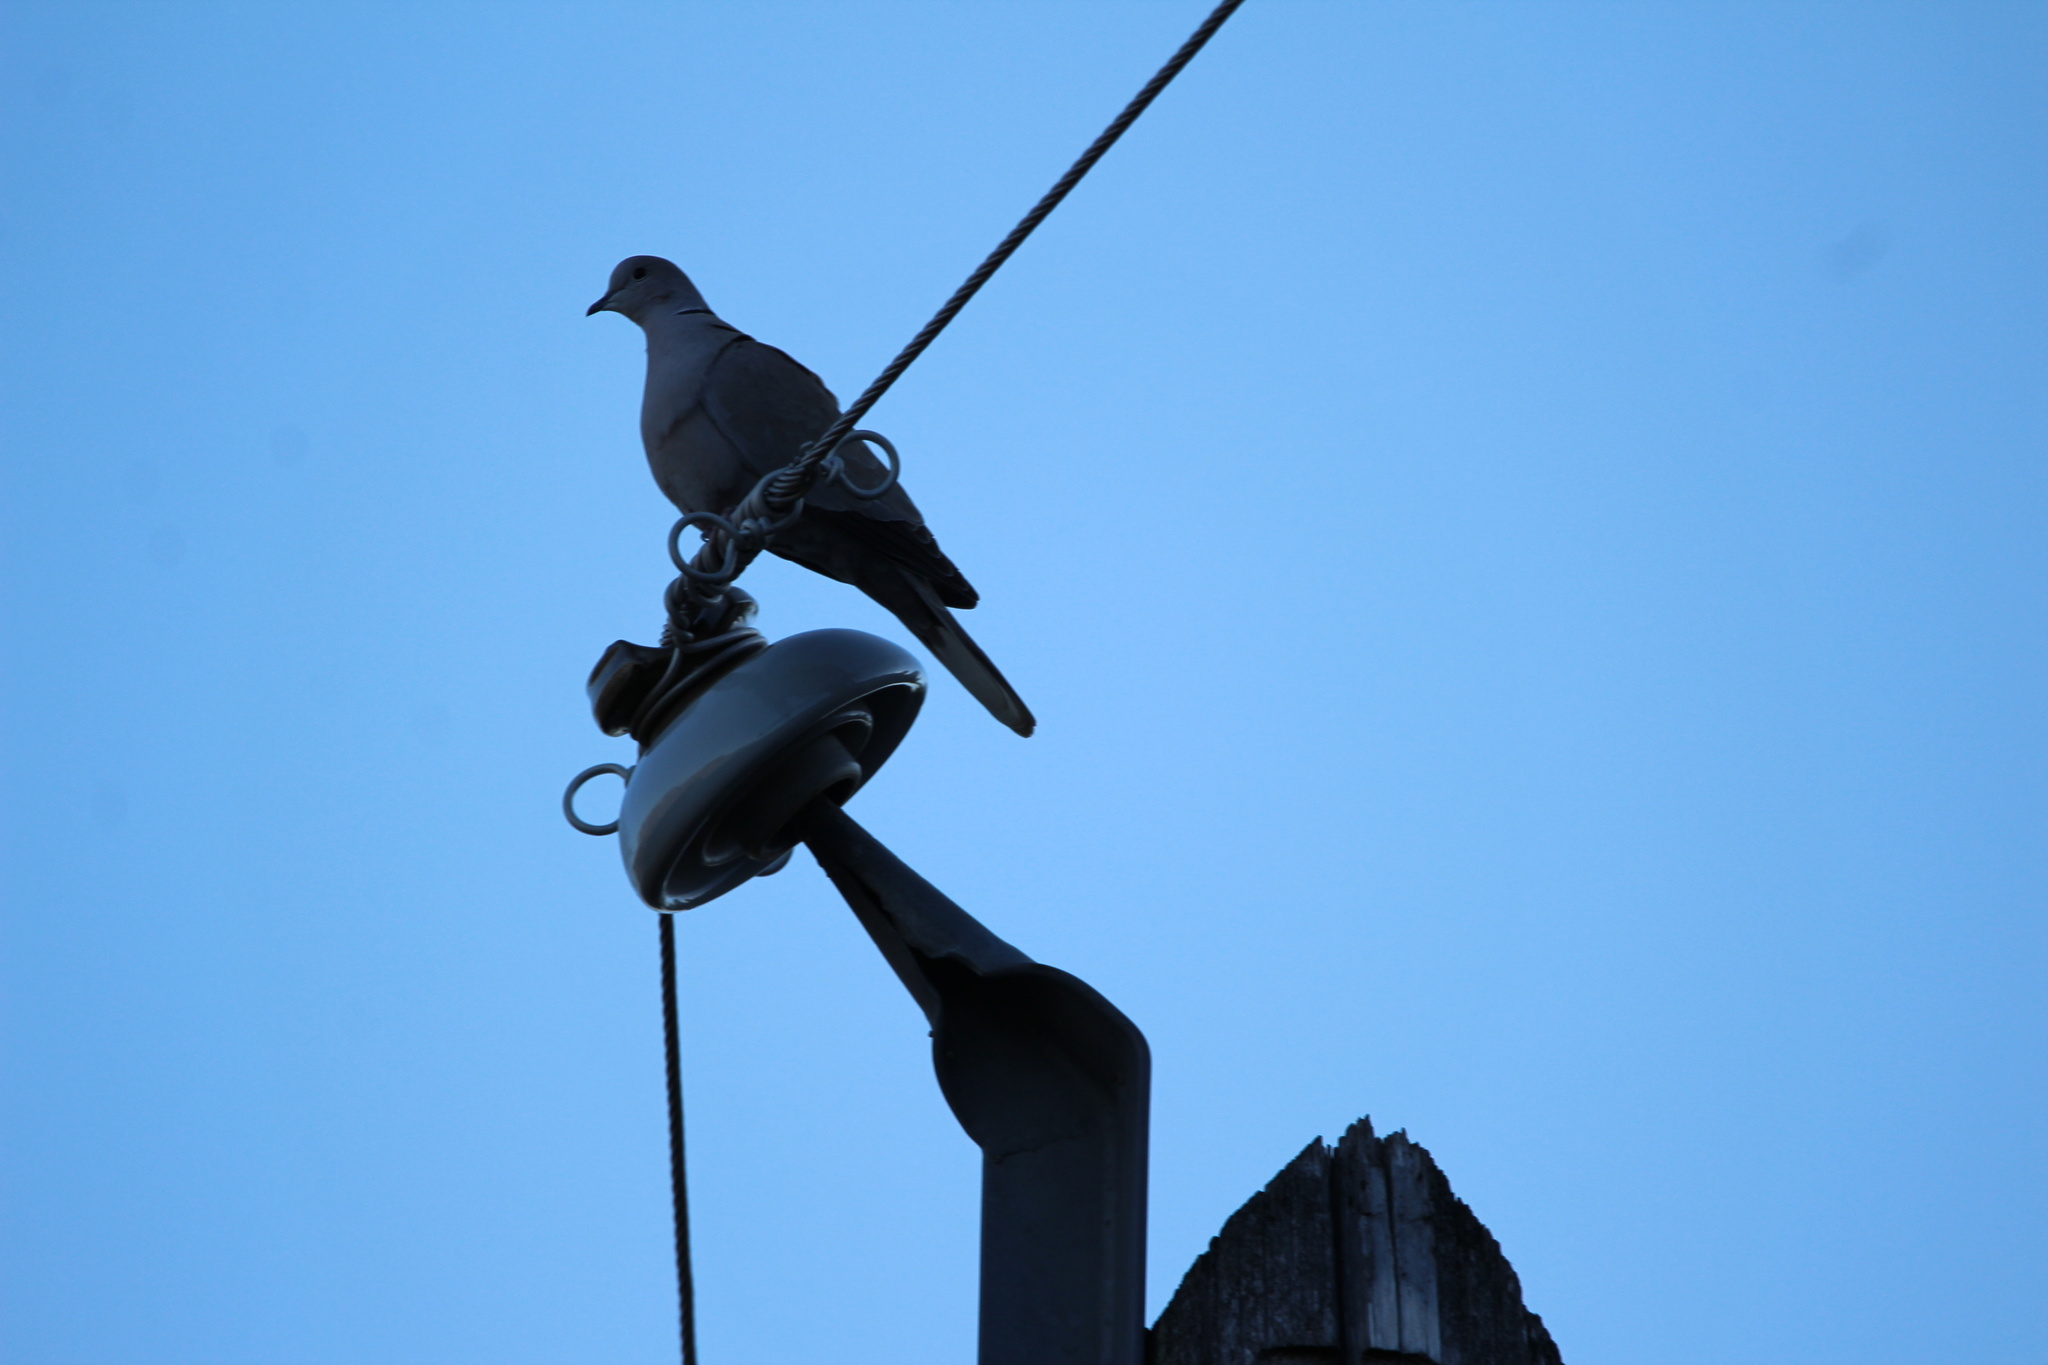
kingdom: Animalia
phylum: Chordata
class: Aves
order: Columbiformes
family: Columbidae
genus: Streptopelia
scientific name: Streptopelia decaocto
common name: Eurasian collared dove
